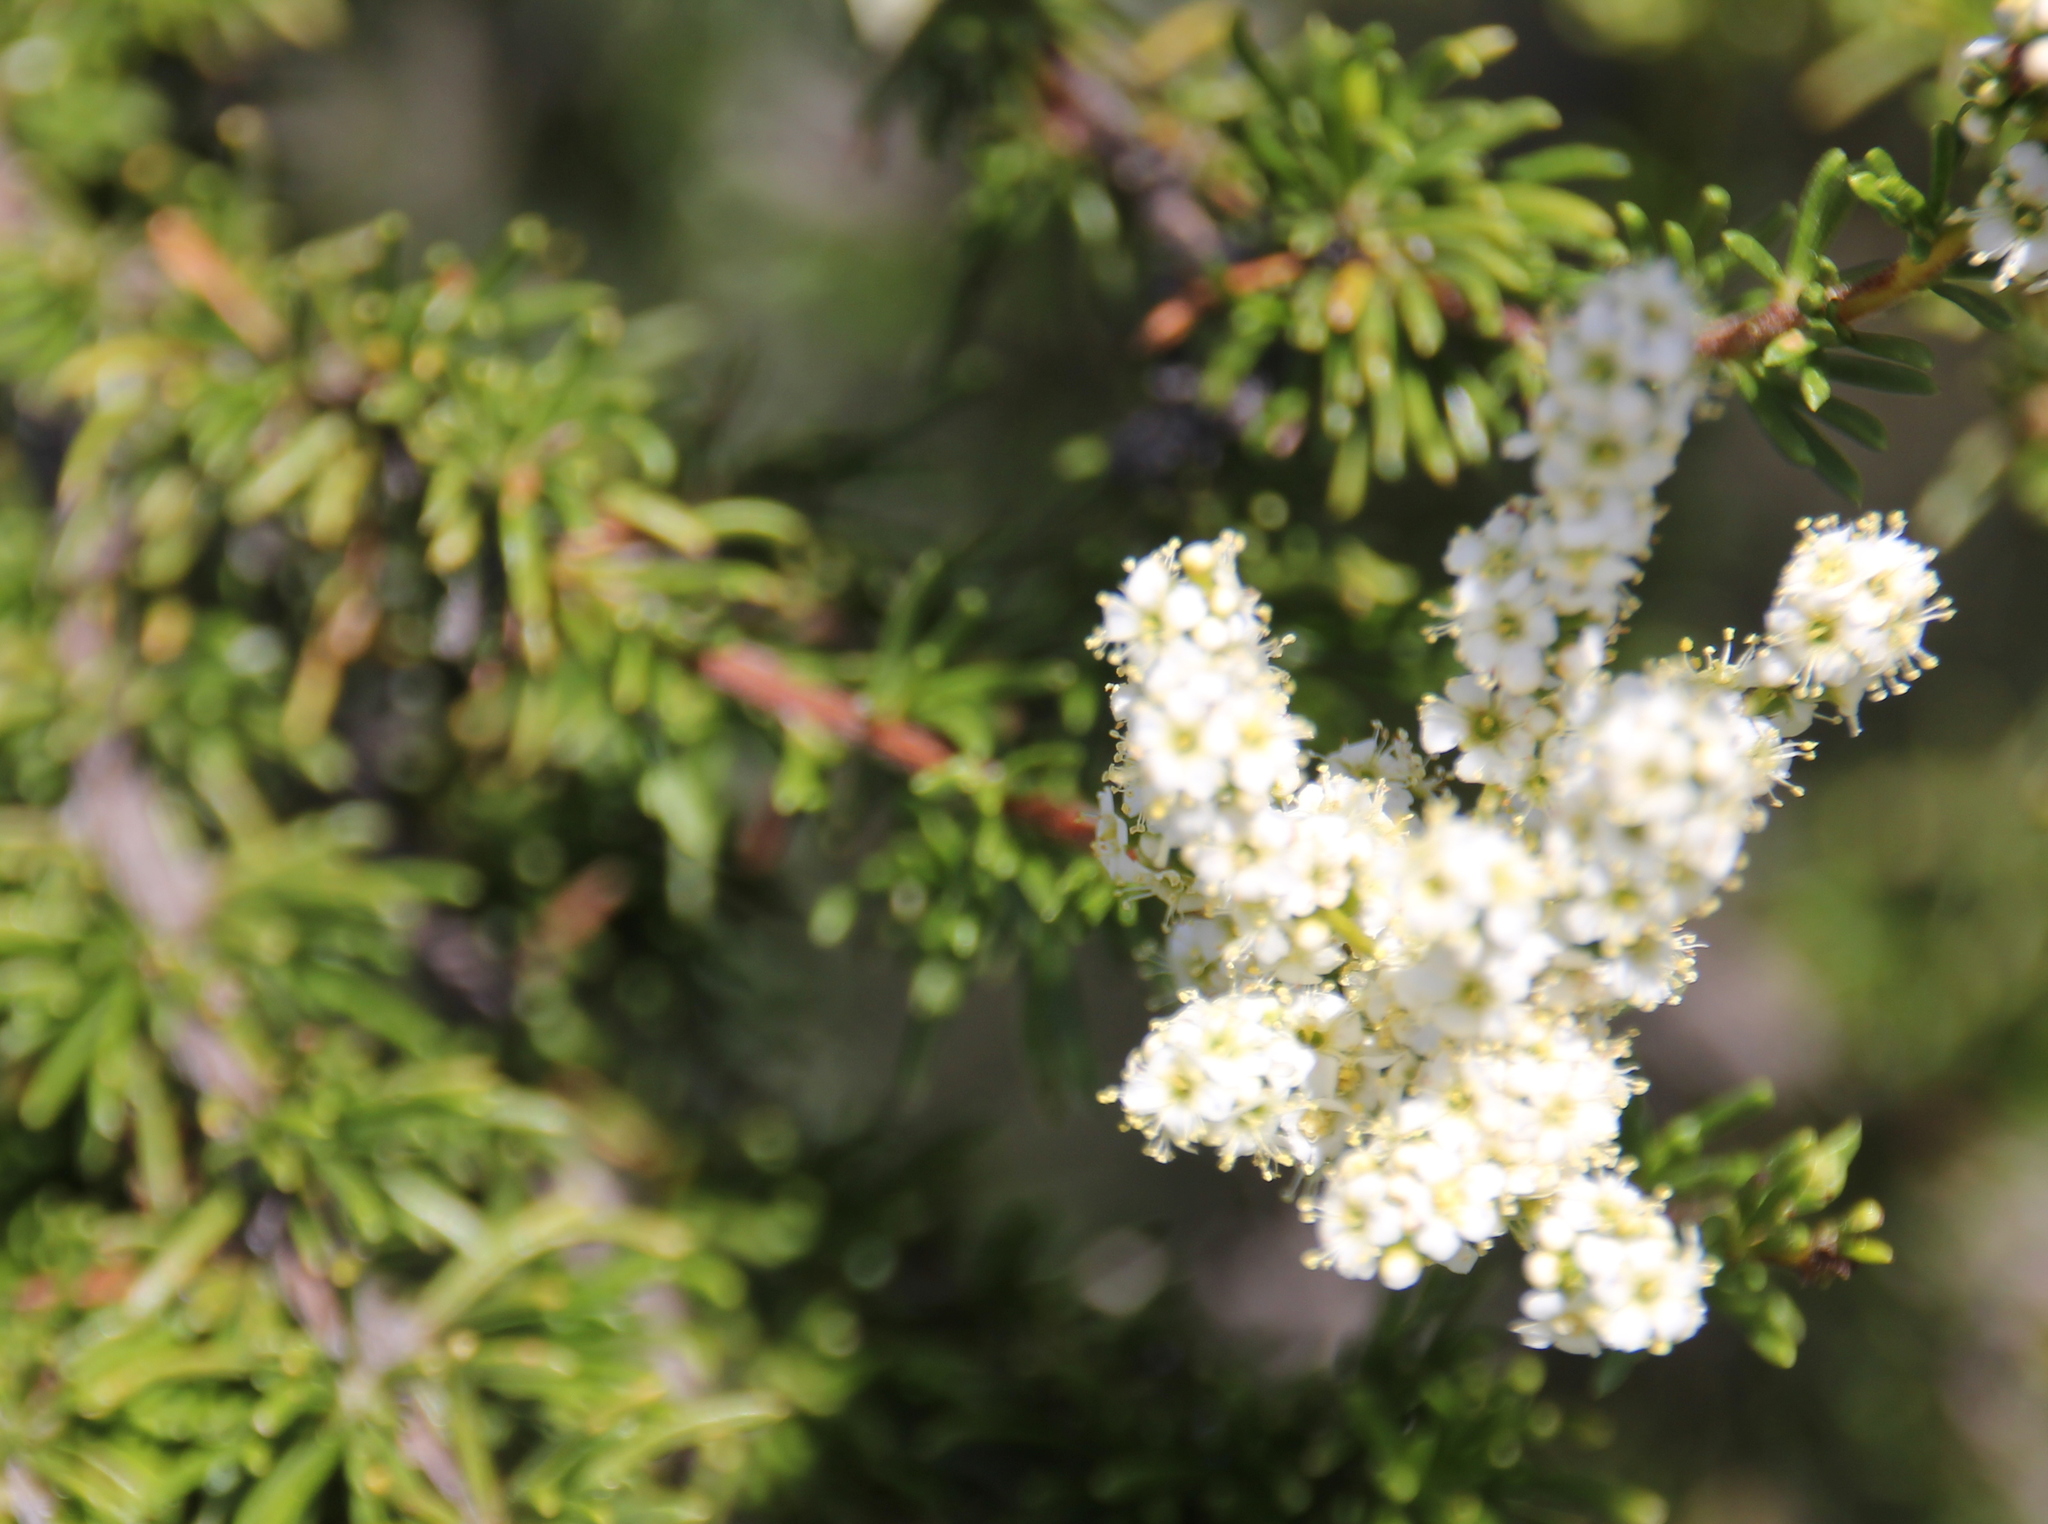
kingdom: Plantae
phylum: Tracheophyta
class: Magnoliopsida
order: Rosales
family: Rosaceae
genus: Adenostoma
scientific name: Adenostoma fasciculatum
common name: Chamise
